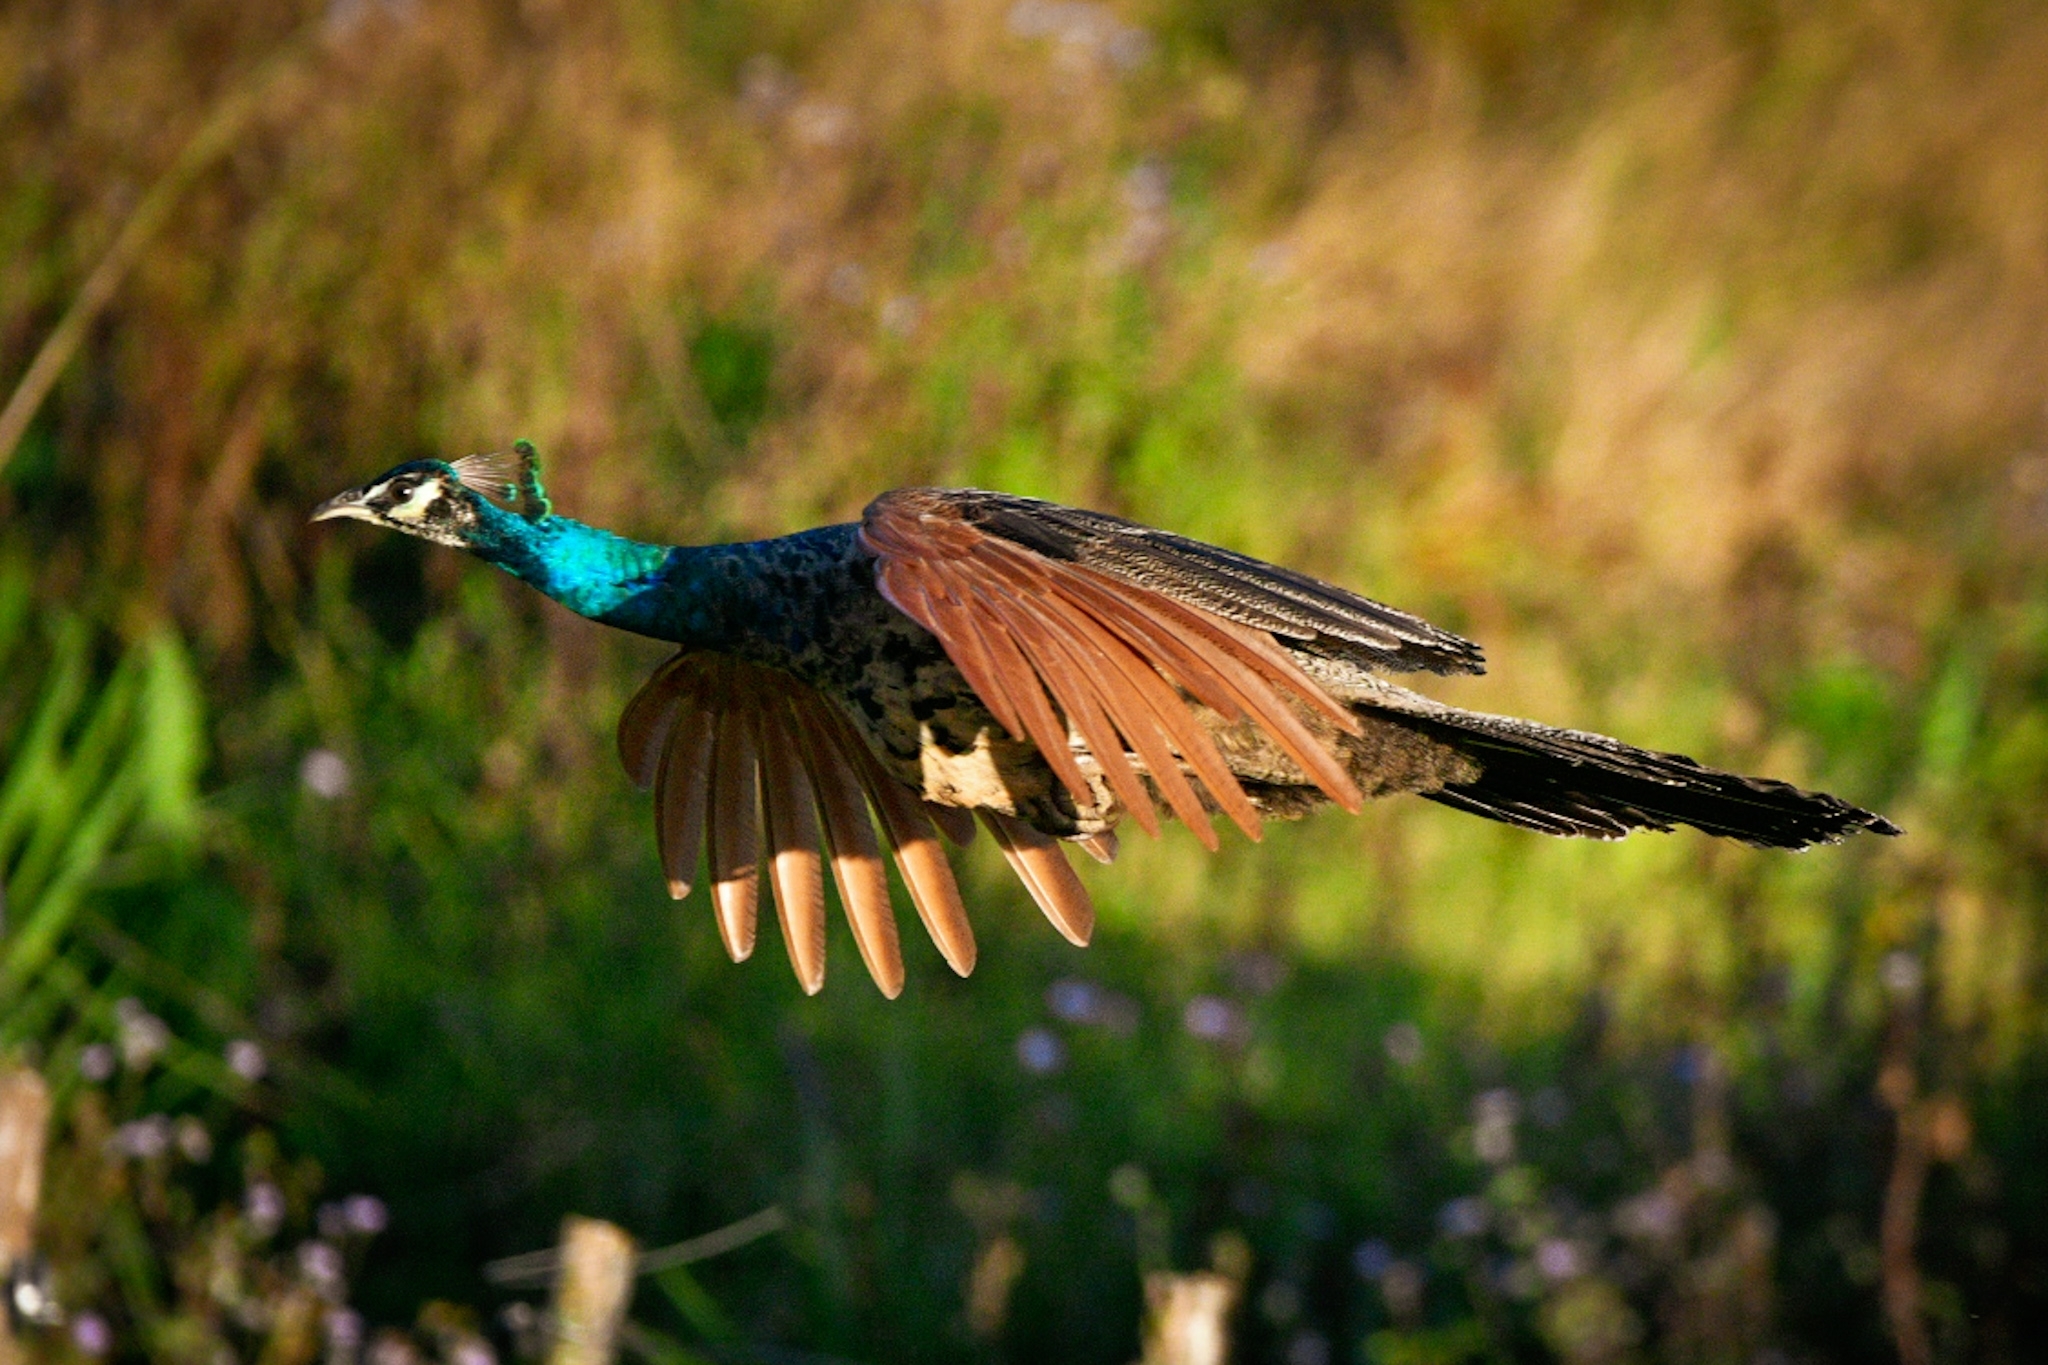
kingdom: Animalia
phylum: Chordata
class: Aves
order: Galliformes
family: Phasianidae
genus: Pavo
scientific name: Pavo cristatus
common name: Indian peafowl
